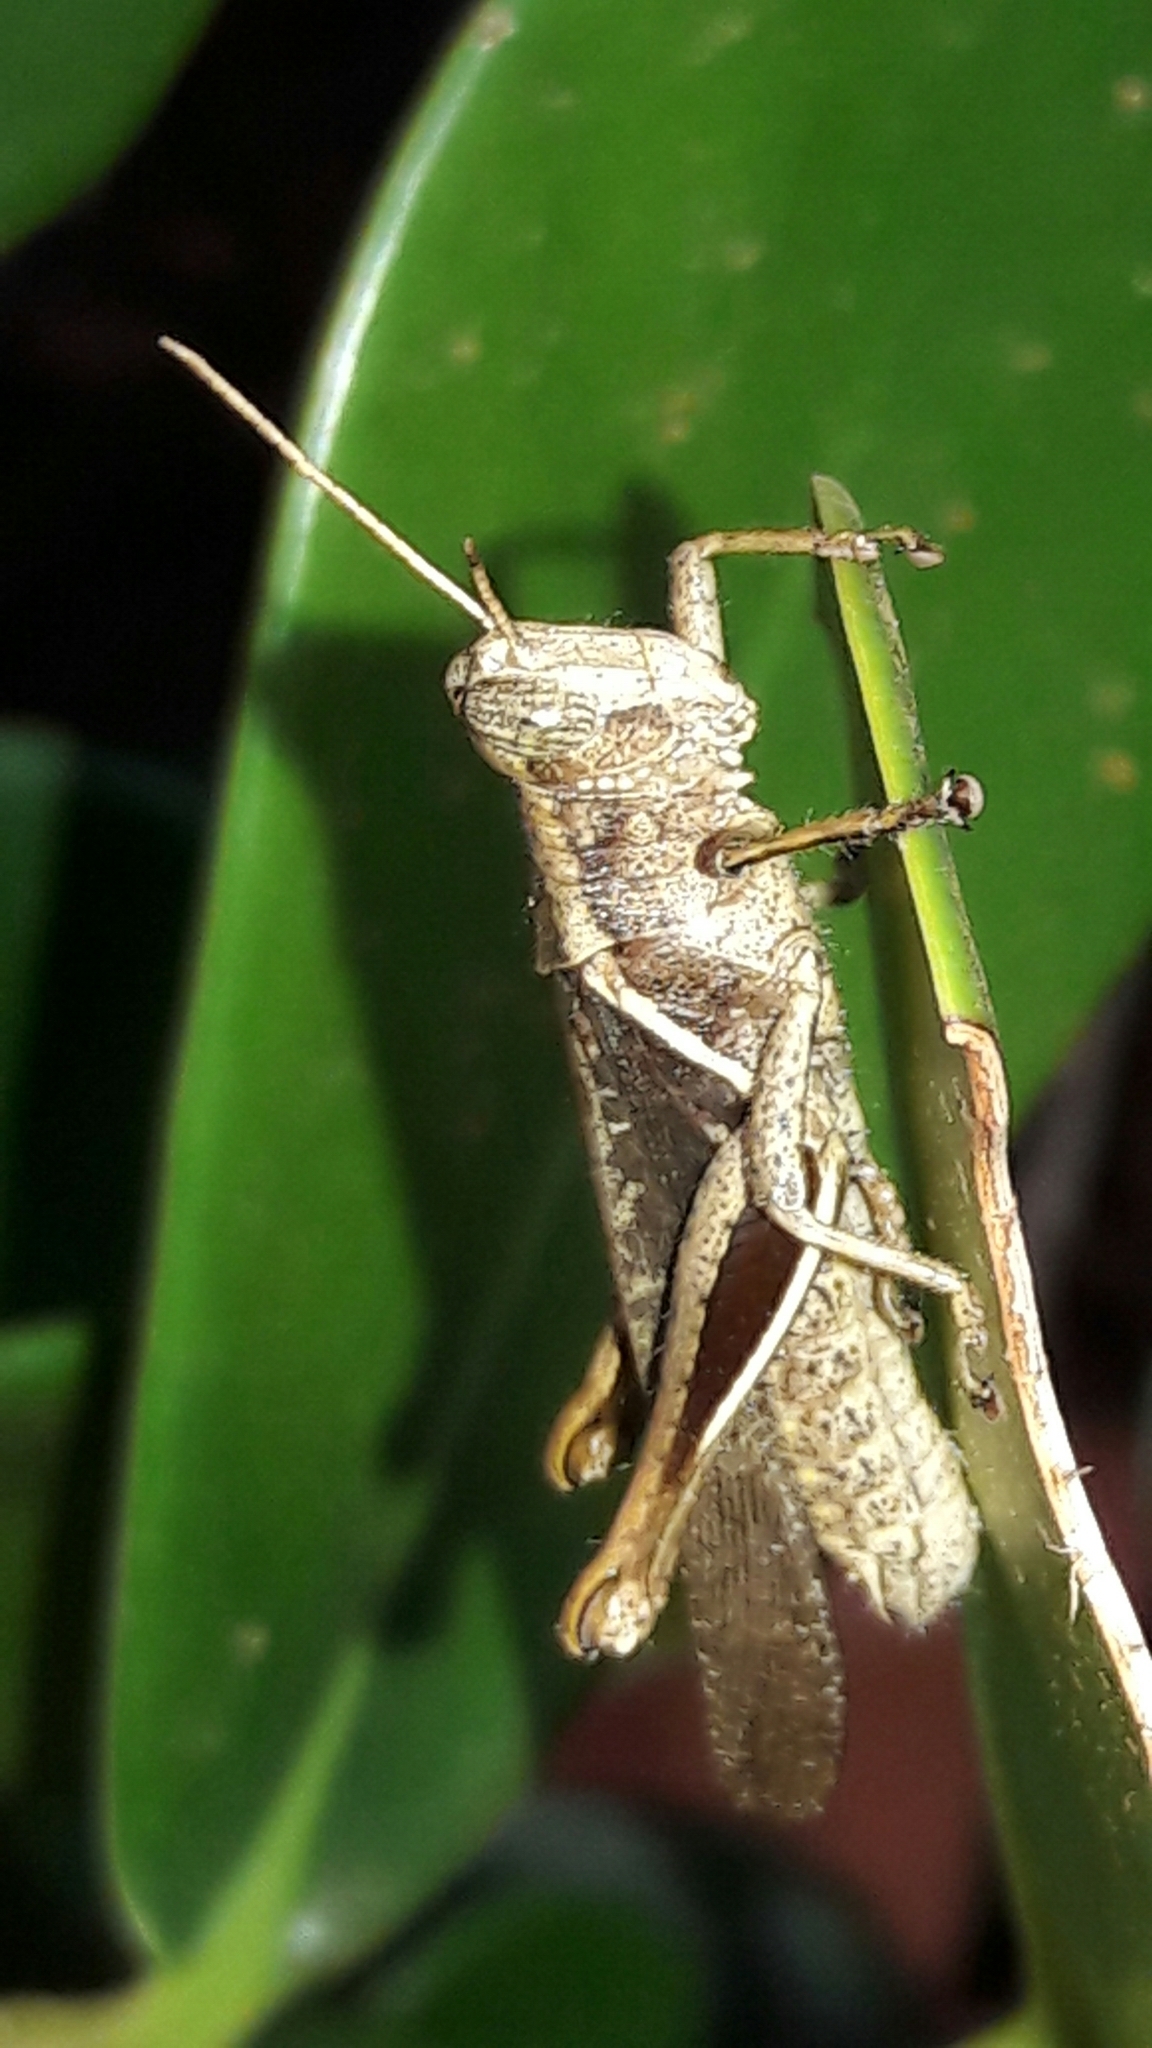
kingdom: Animalia
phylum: Arthropoda
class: Insecta
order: Orthoptera
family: Acrididae
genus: Abracris
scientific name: Abracris flavolineata
